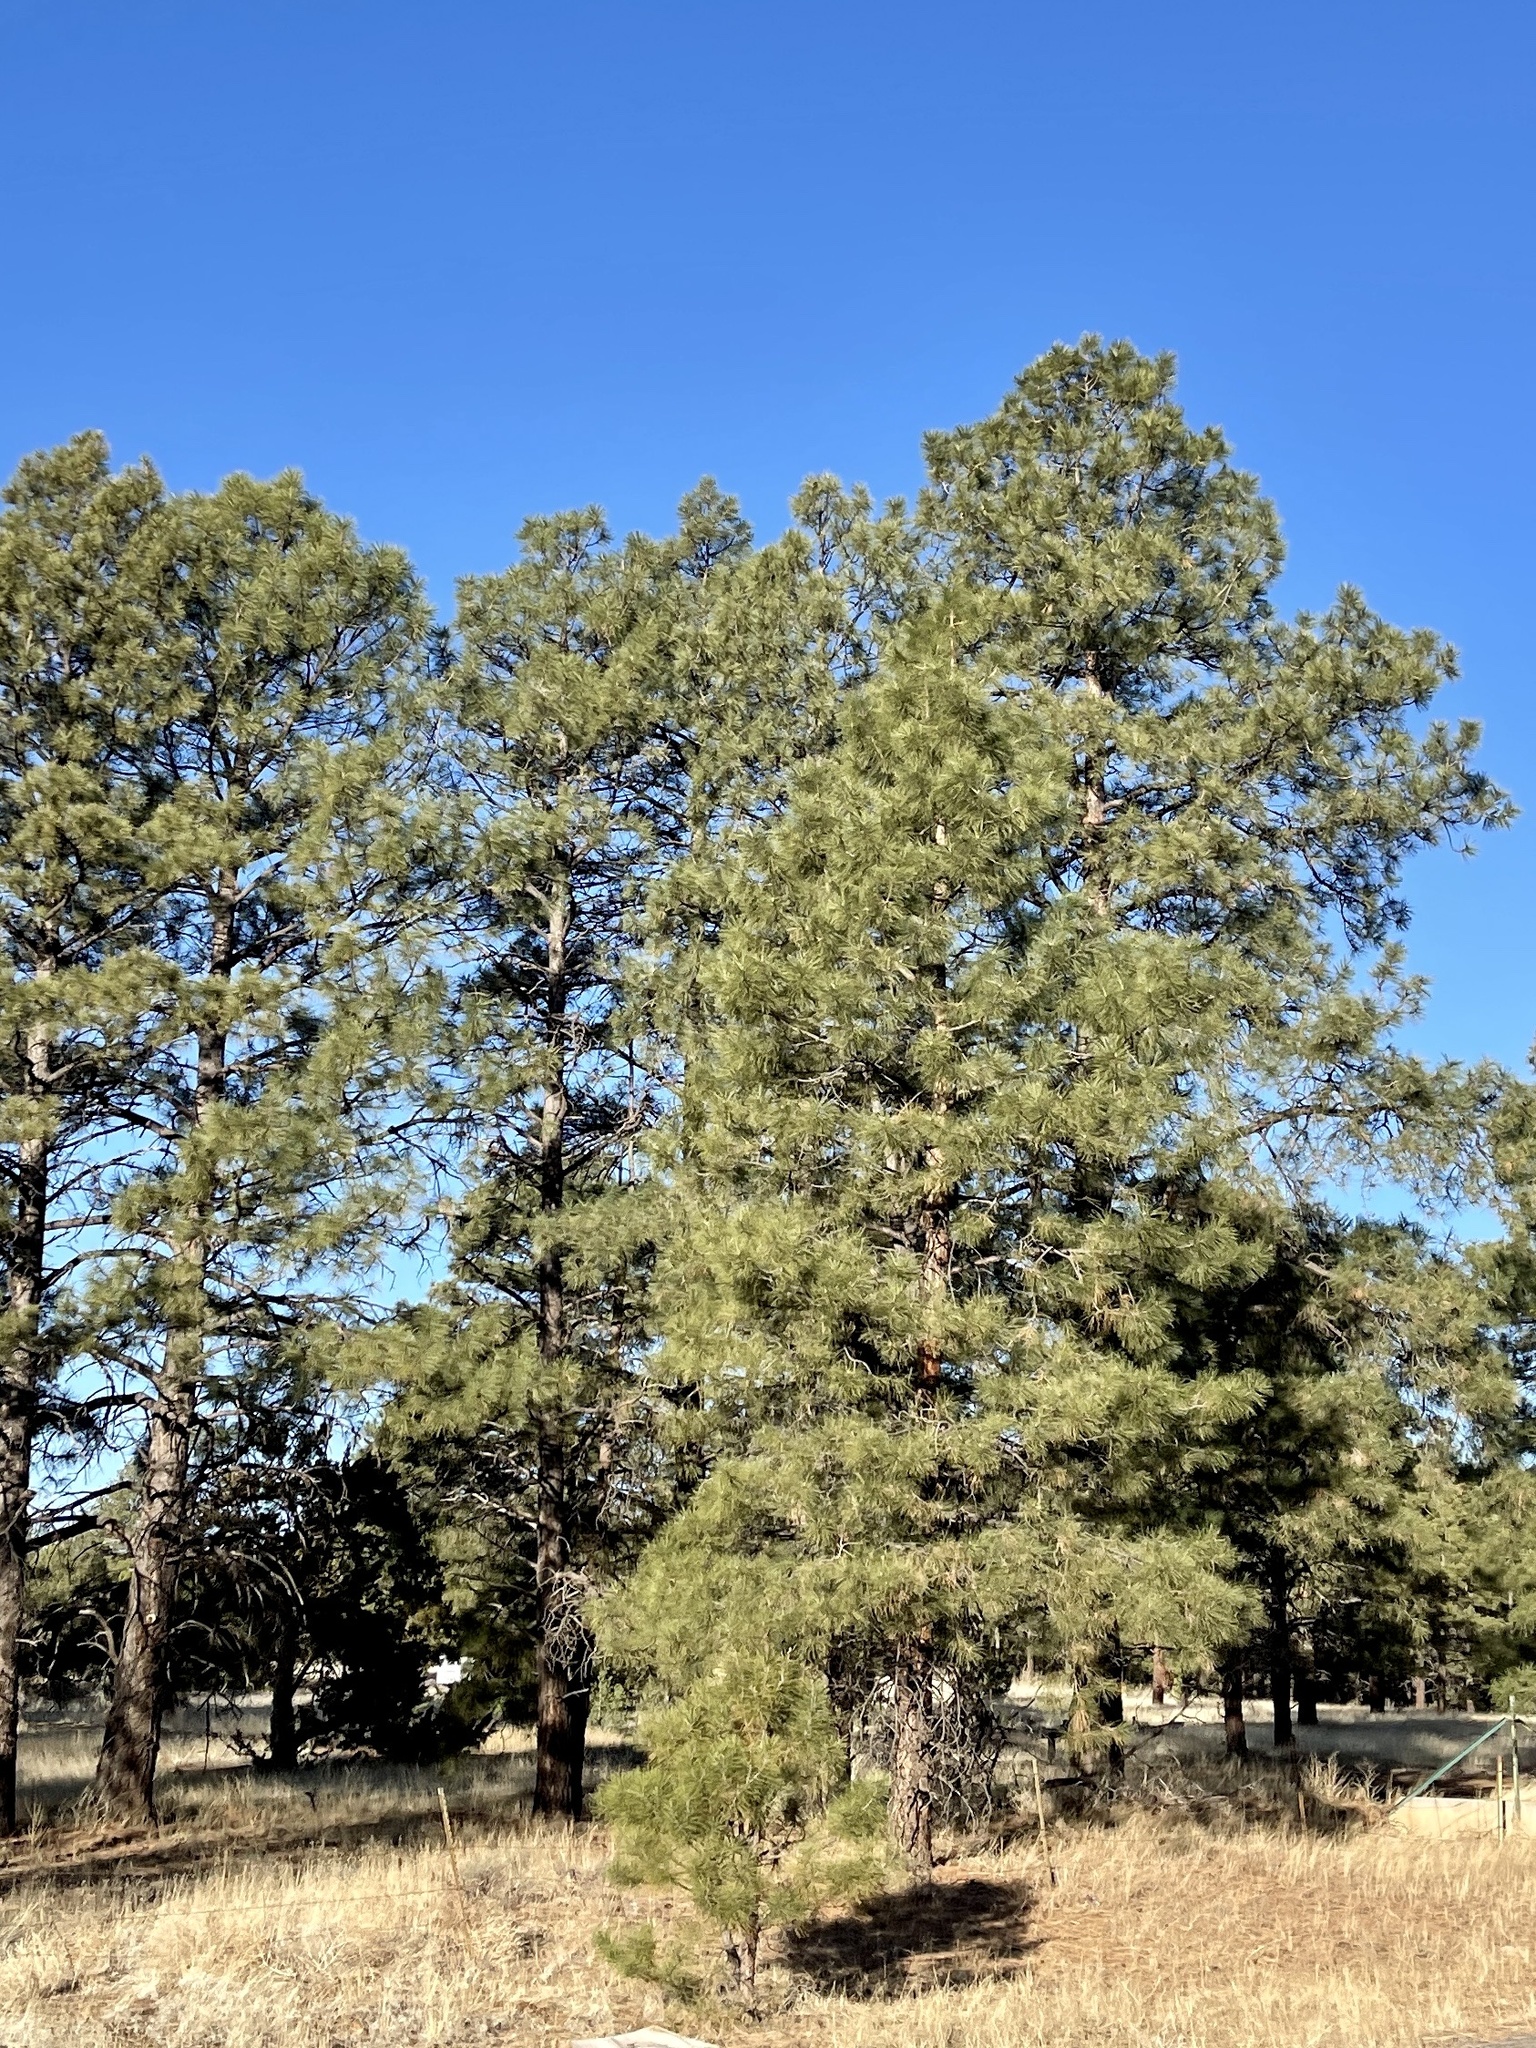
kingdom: Plantae
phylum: Tracheophyta
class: Pinopsida
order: Pinales
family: Pinaceae
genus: Pinus
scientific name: Pinus ponderosa
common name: Western yellow-pine
